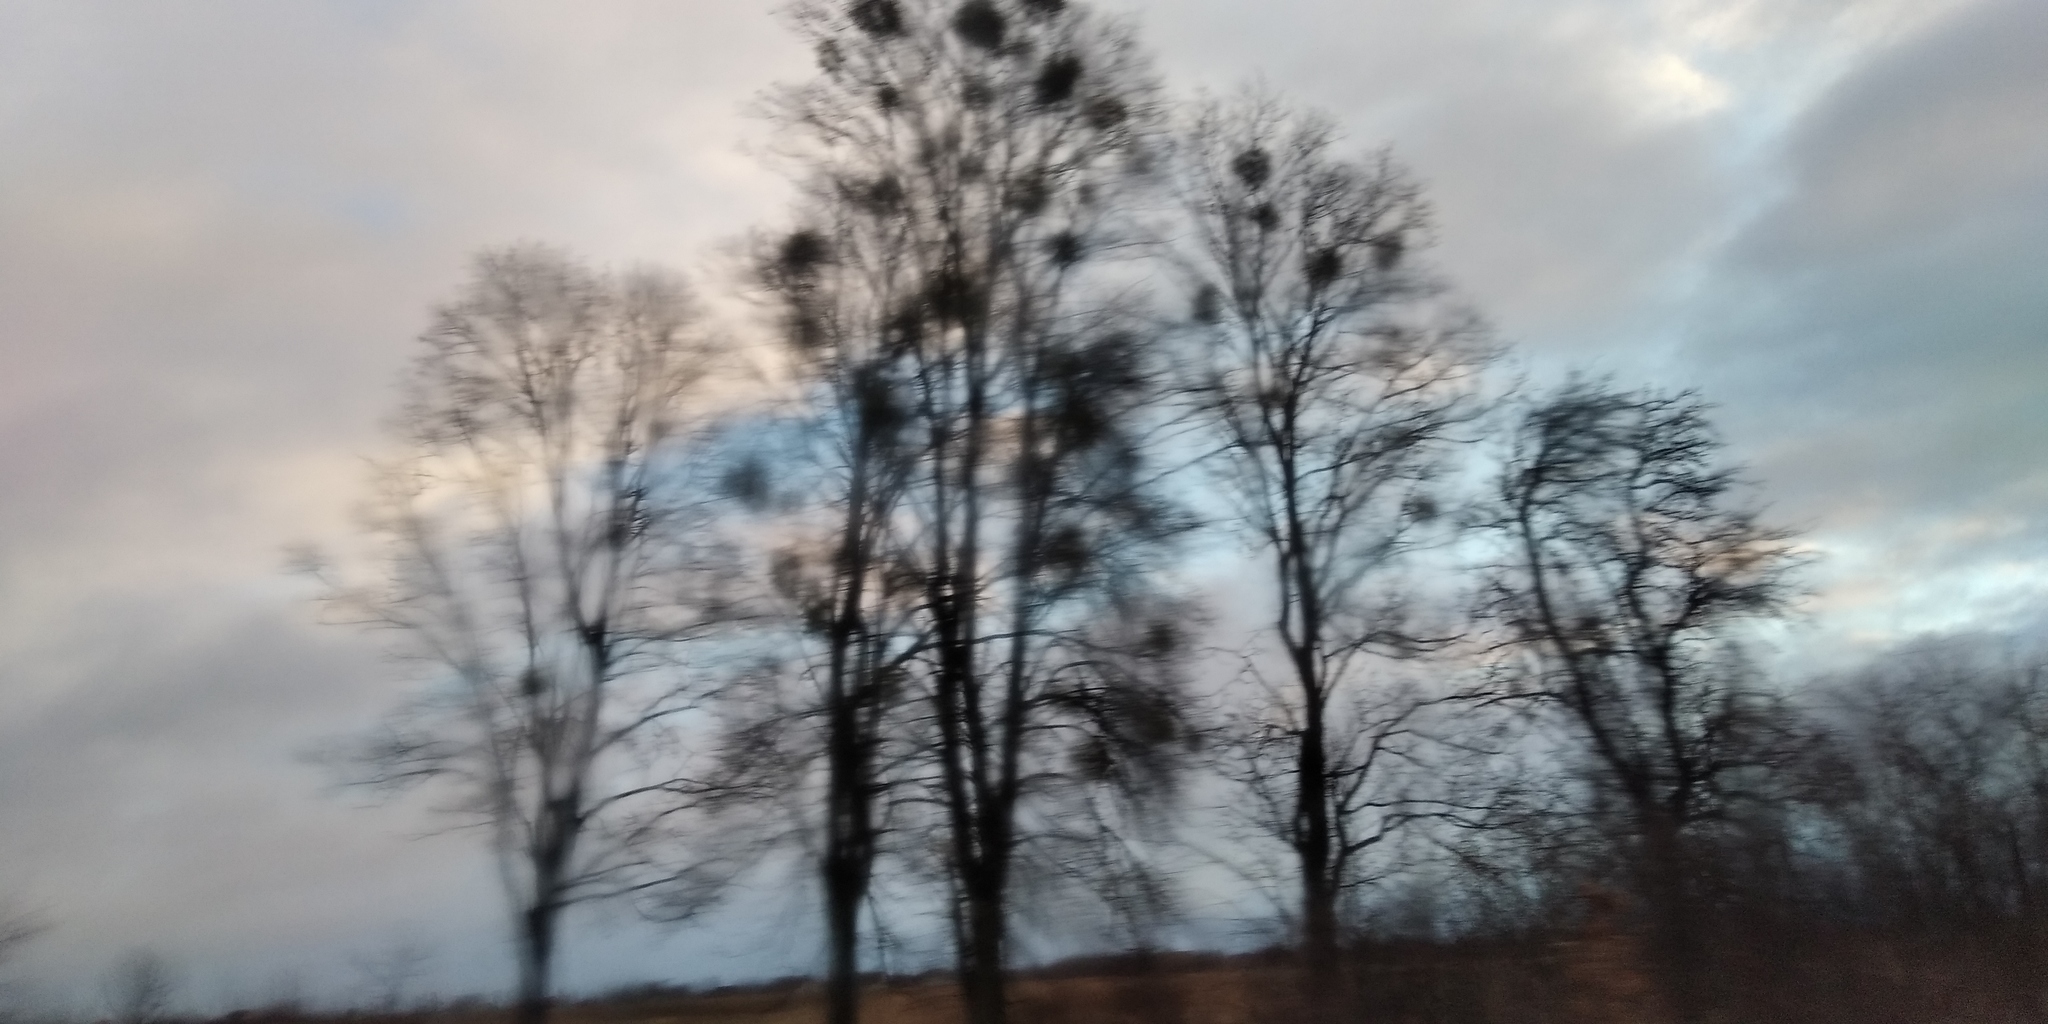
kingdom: Plantae
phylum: Tracheophyta
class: Magnoliopsida
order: Santalales
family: Viscaceae
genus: Viscum
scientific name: Viscum album
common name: Mistletoe
